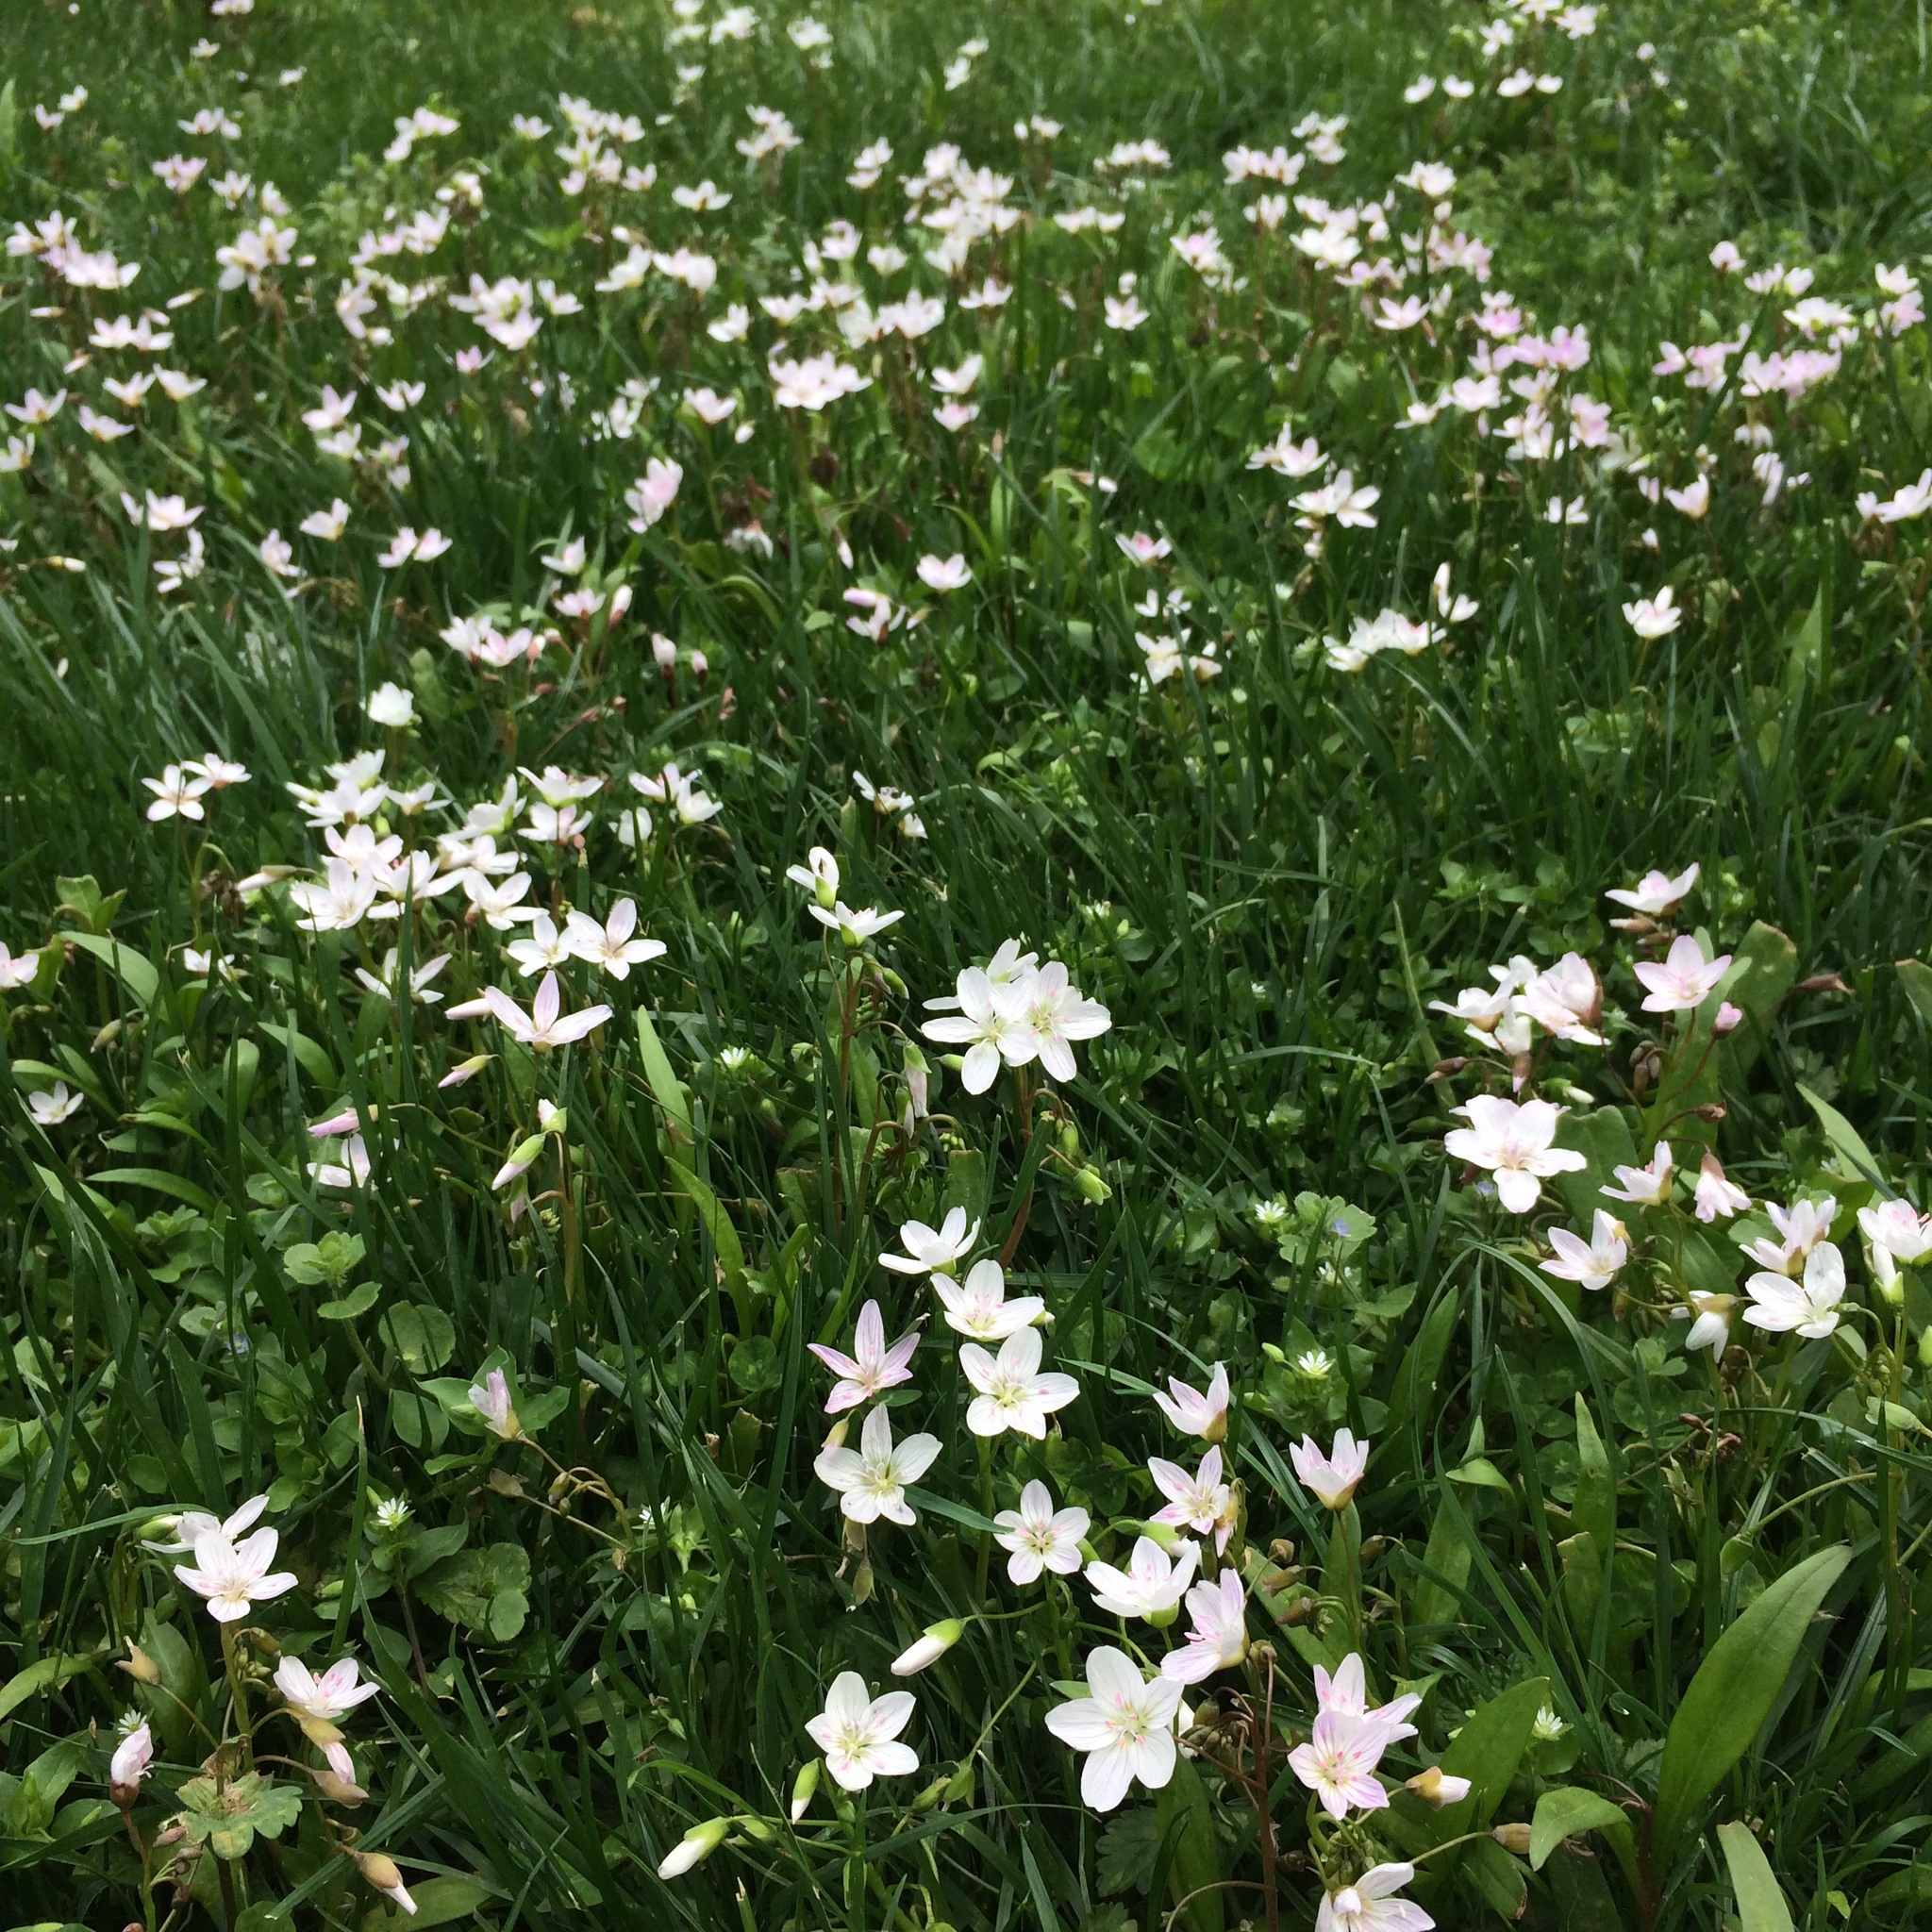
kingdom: Plantae
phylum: Tracheophyta
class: Magnoliopsida
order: Caryophyllales
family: Montiaceae
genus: Claytonia
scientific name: Claytonia virginica
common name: Virginia springbeauty
